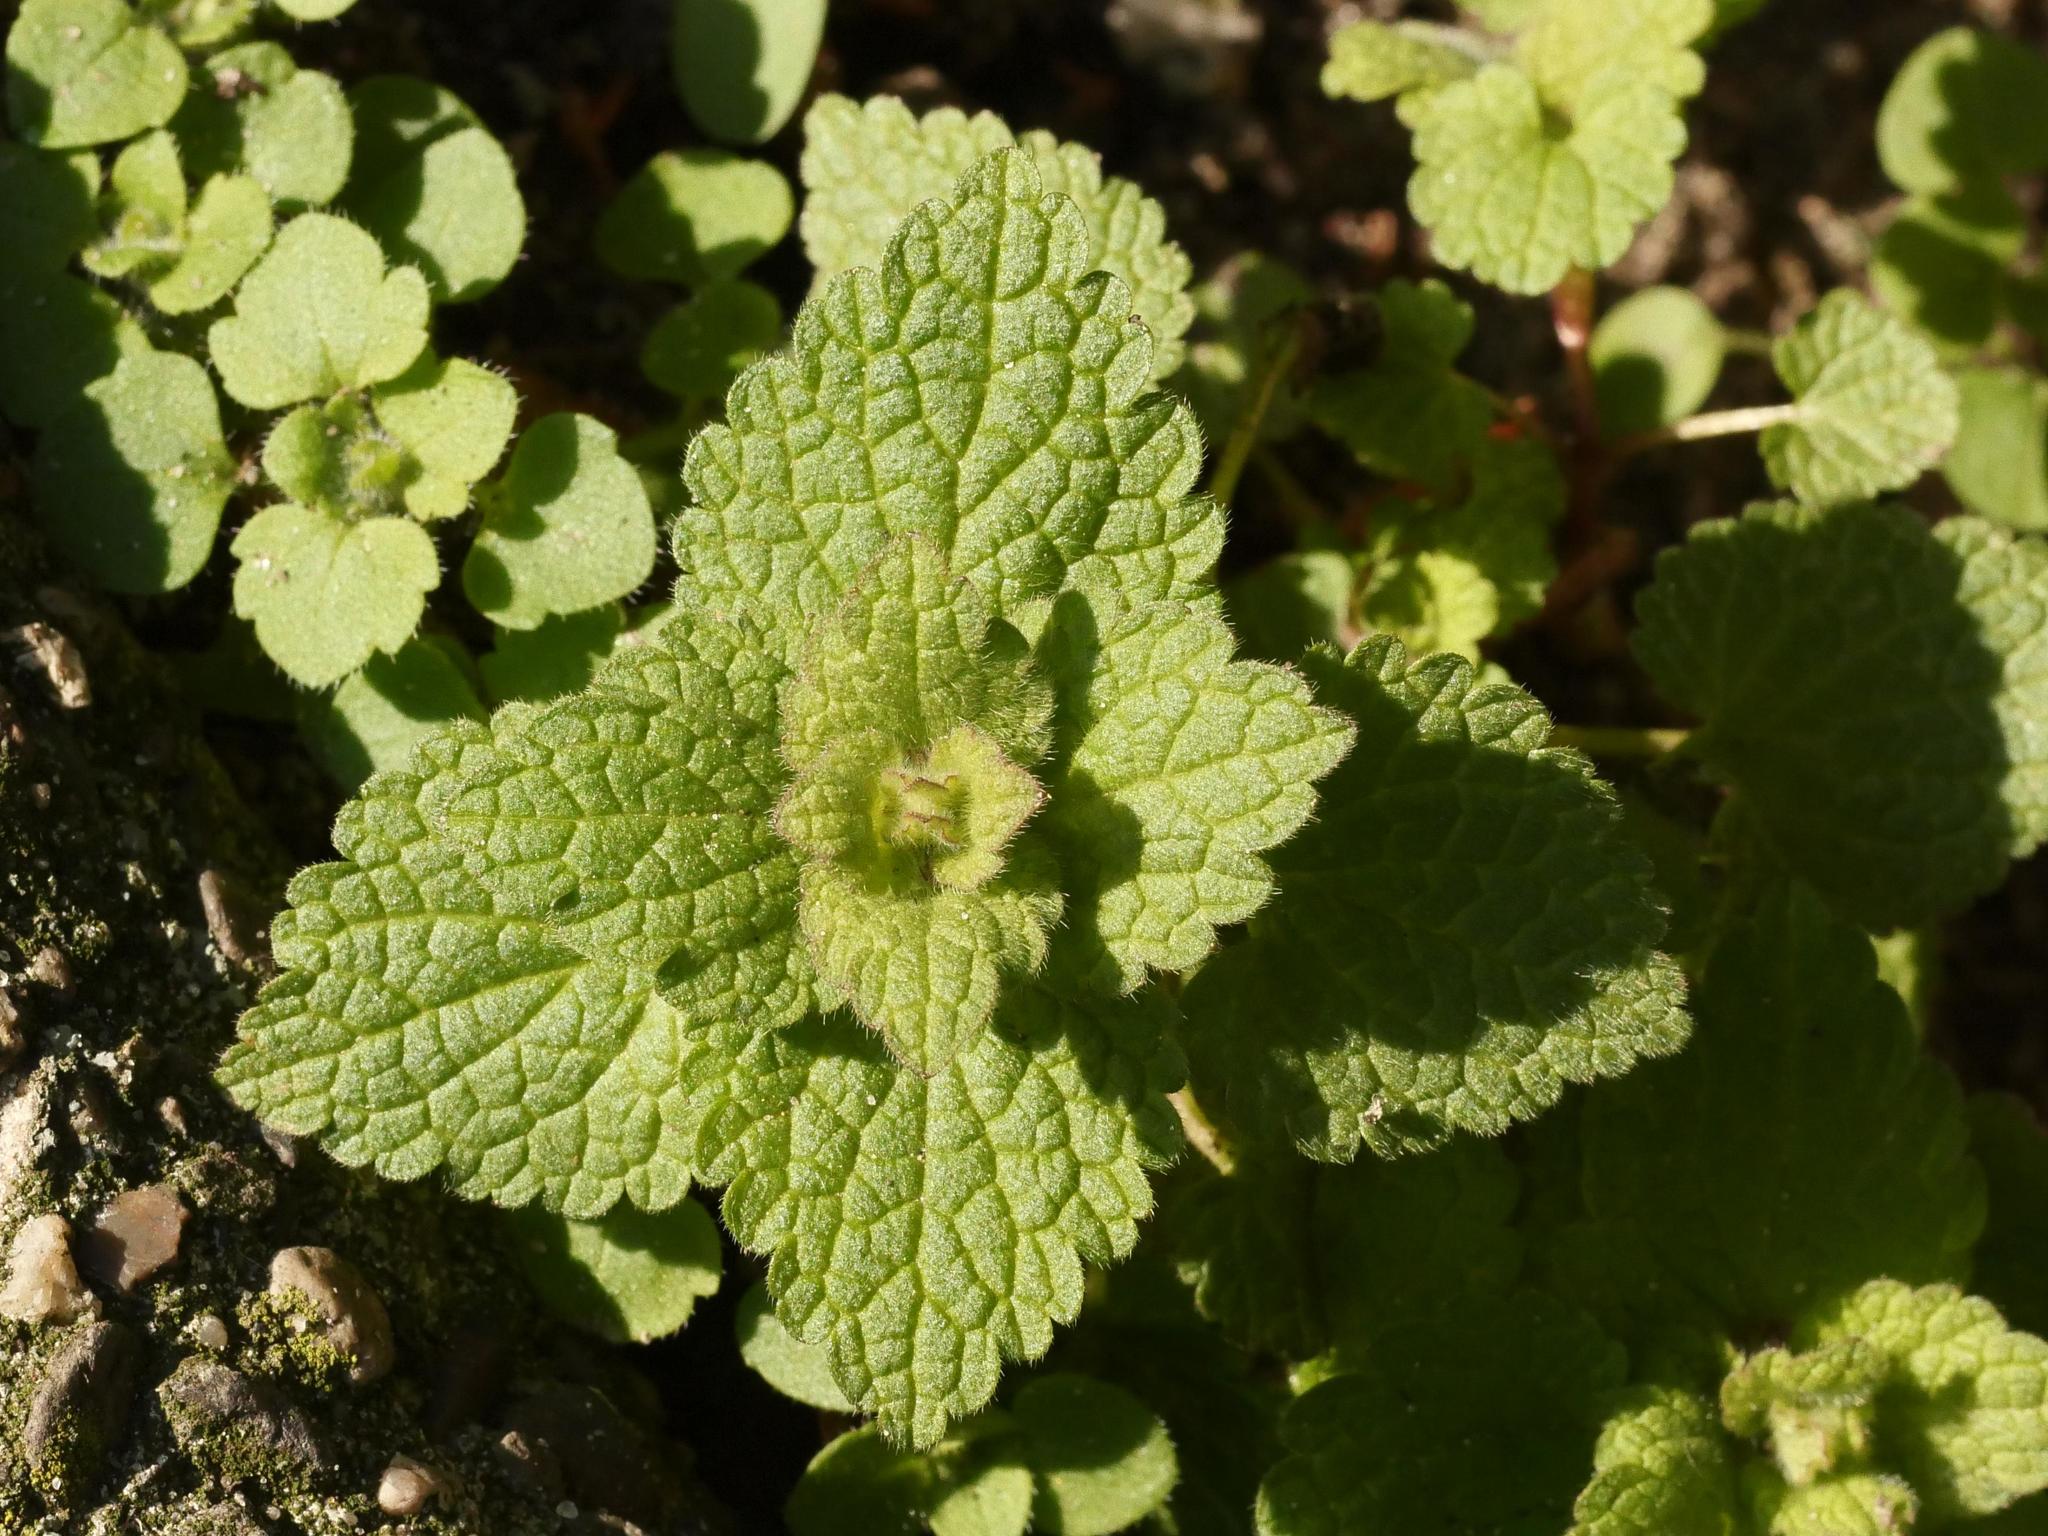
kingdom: Plantae
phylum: Tracheophyta
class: Magnoliopsida
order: Lamiales
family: Lamiaceae
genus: Lamium
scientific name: Lamium purpureum
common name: Red dead-nettle
